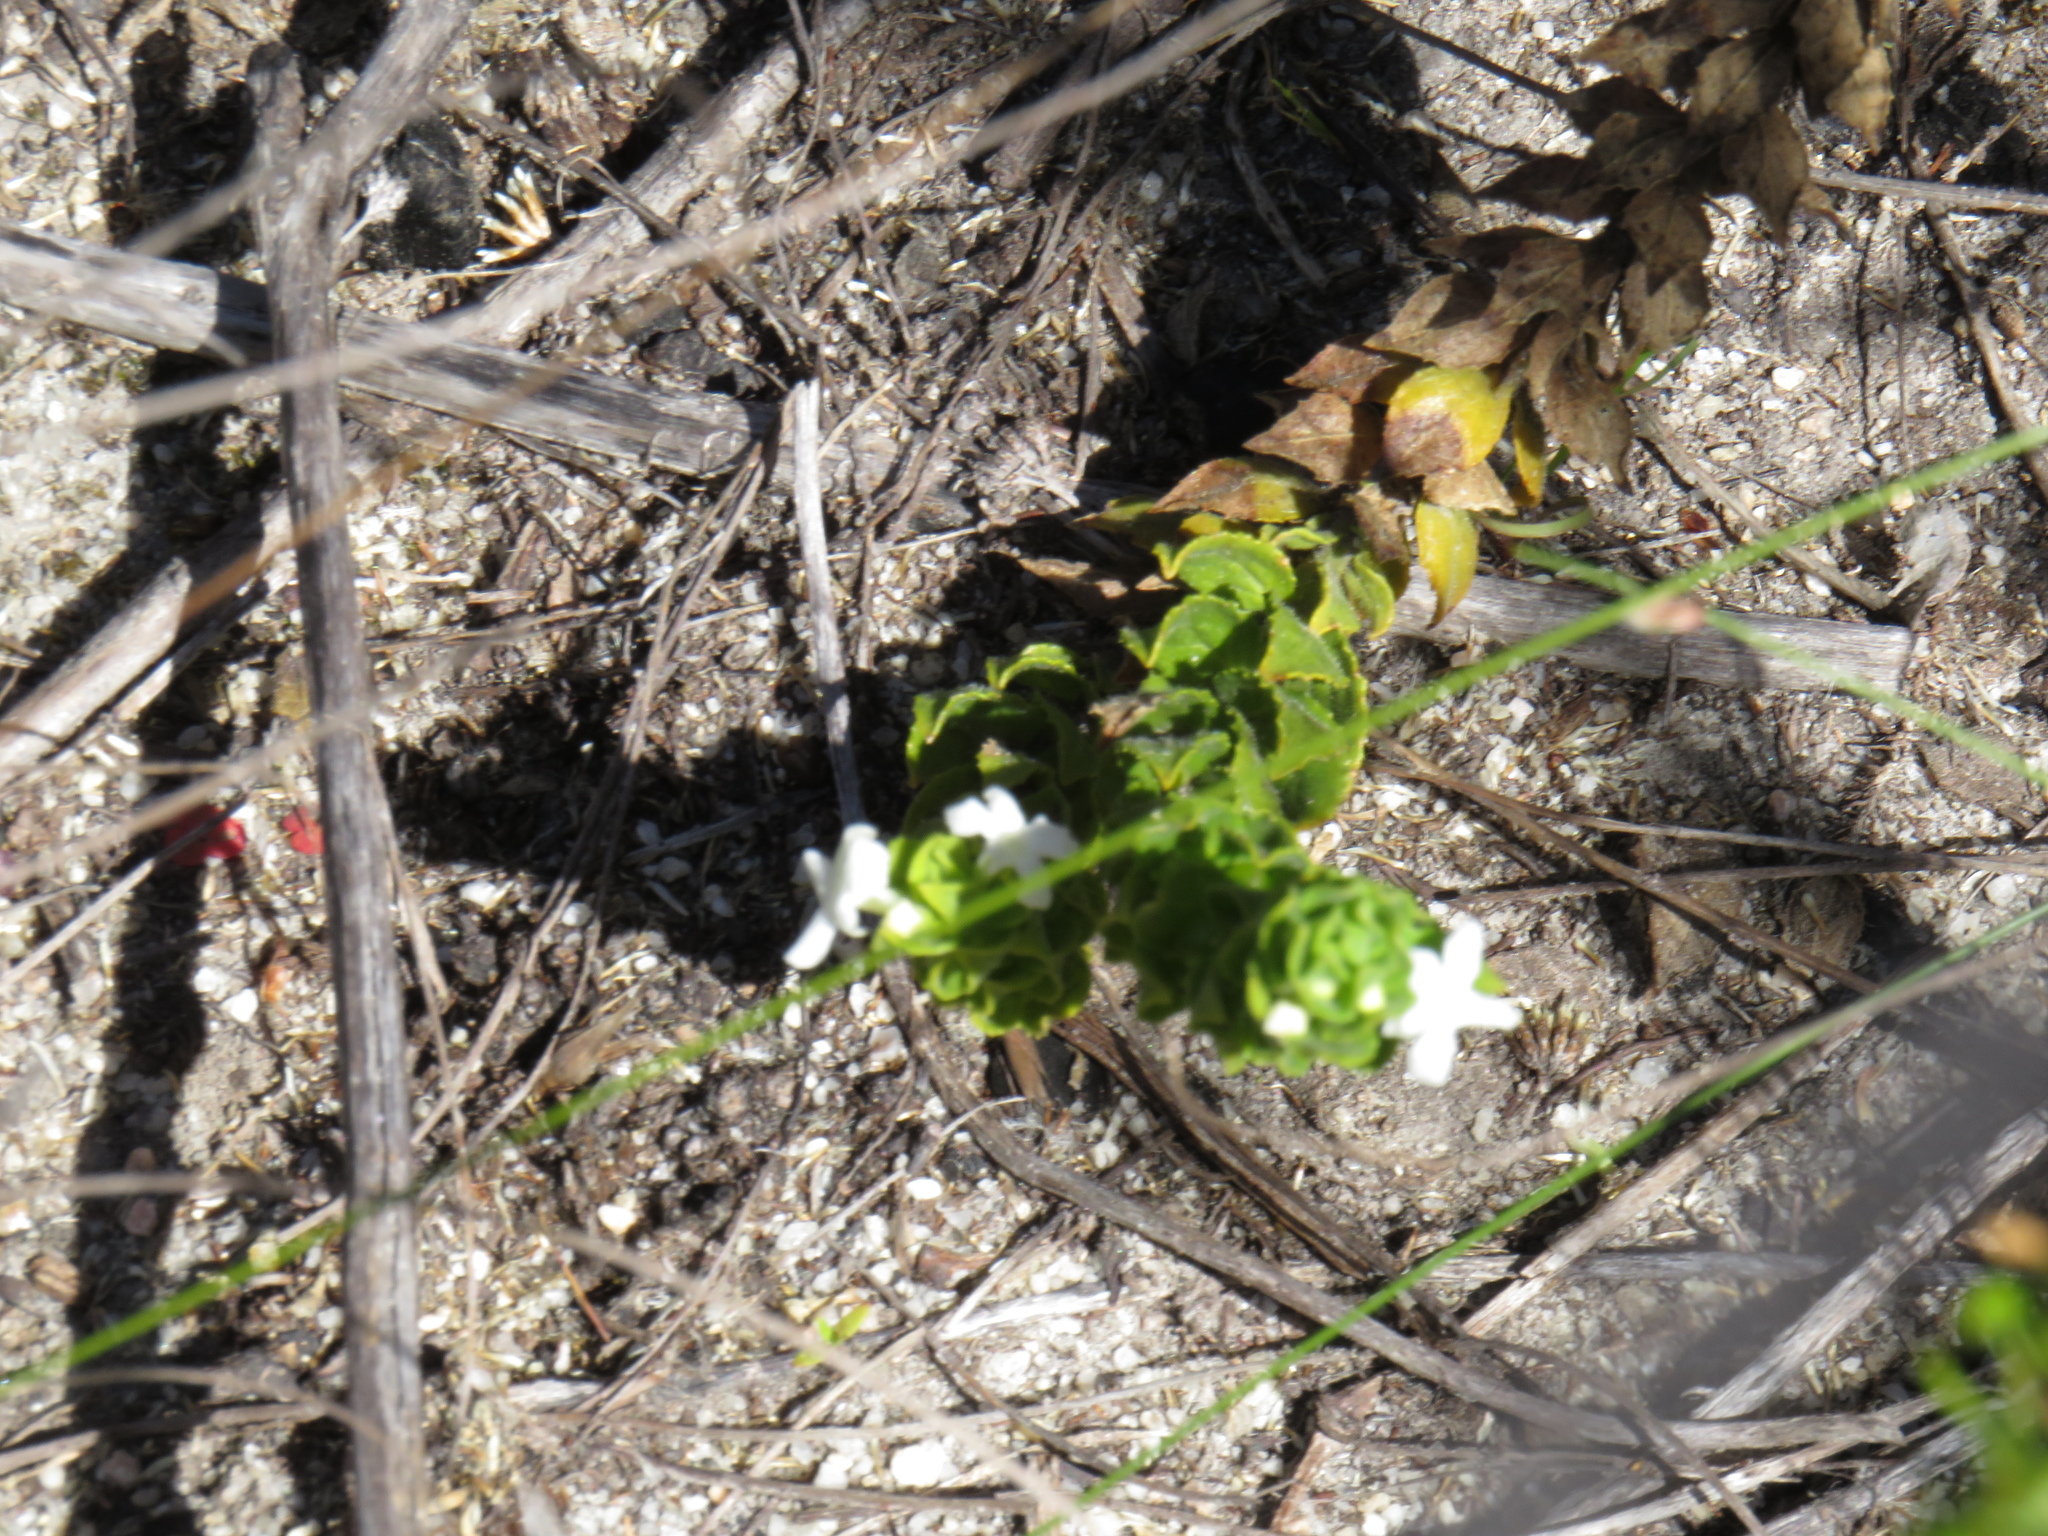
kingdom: Plantae
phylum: Tracheophyta
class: Magnoliopsida
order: Lamiales
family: Scrophulariaceae
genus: Oftia
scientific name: Oftia africana
